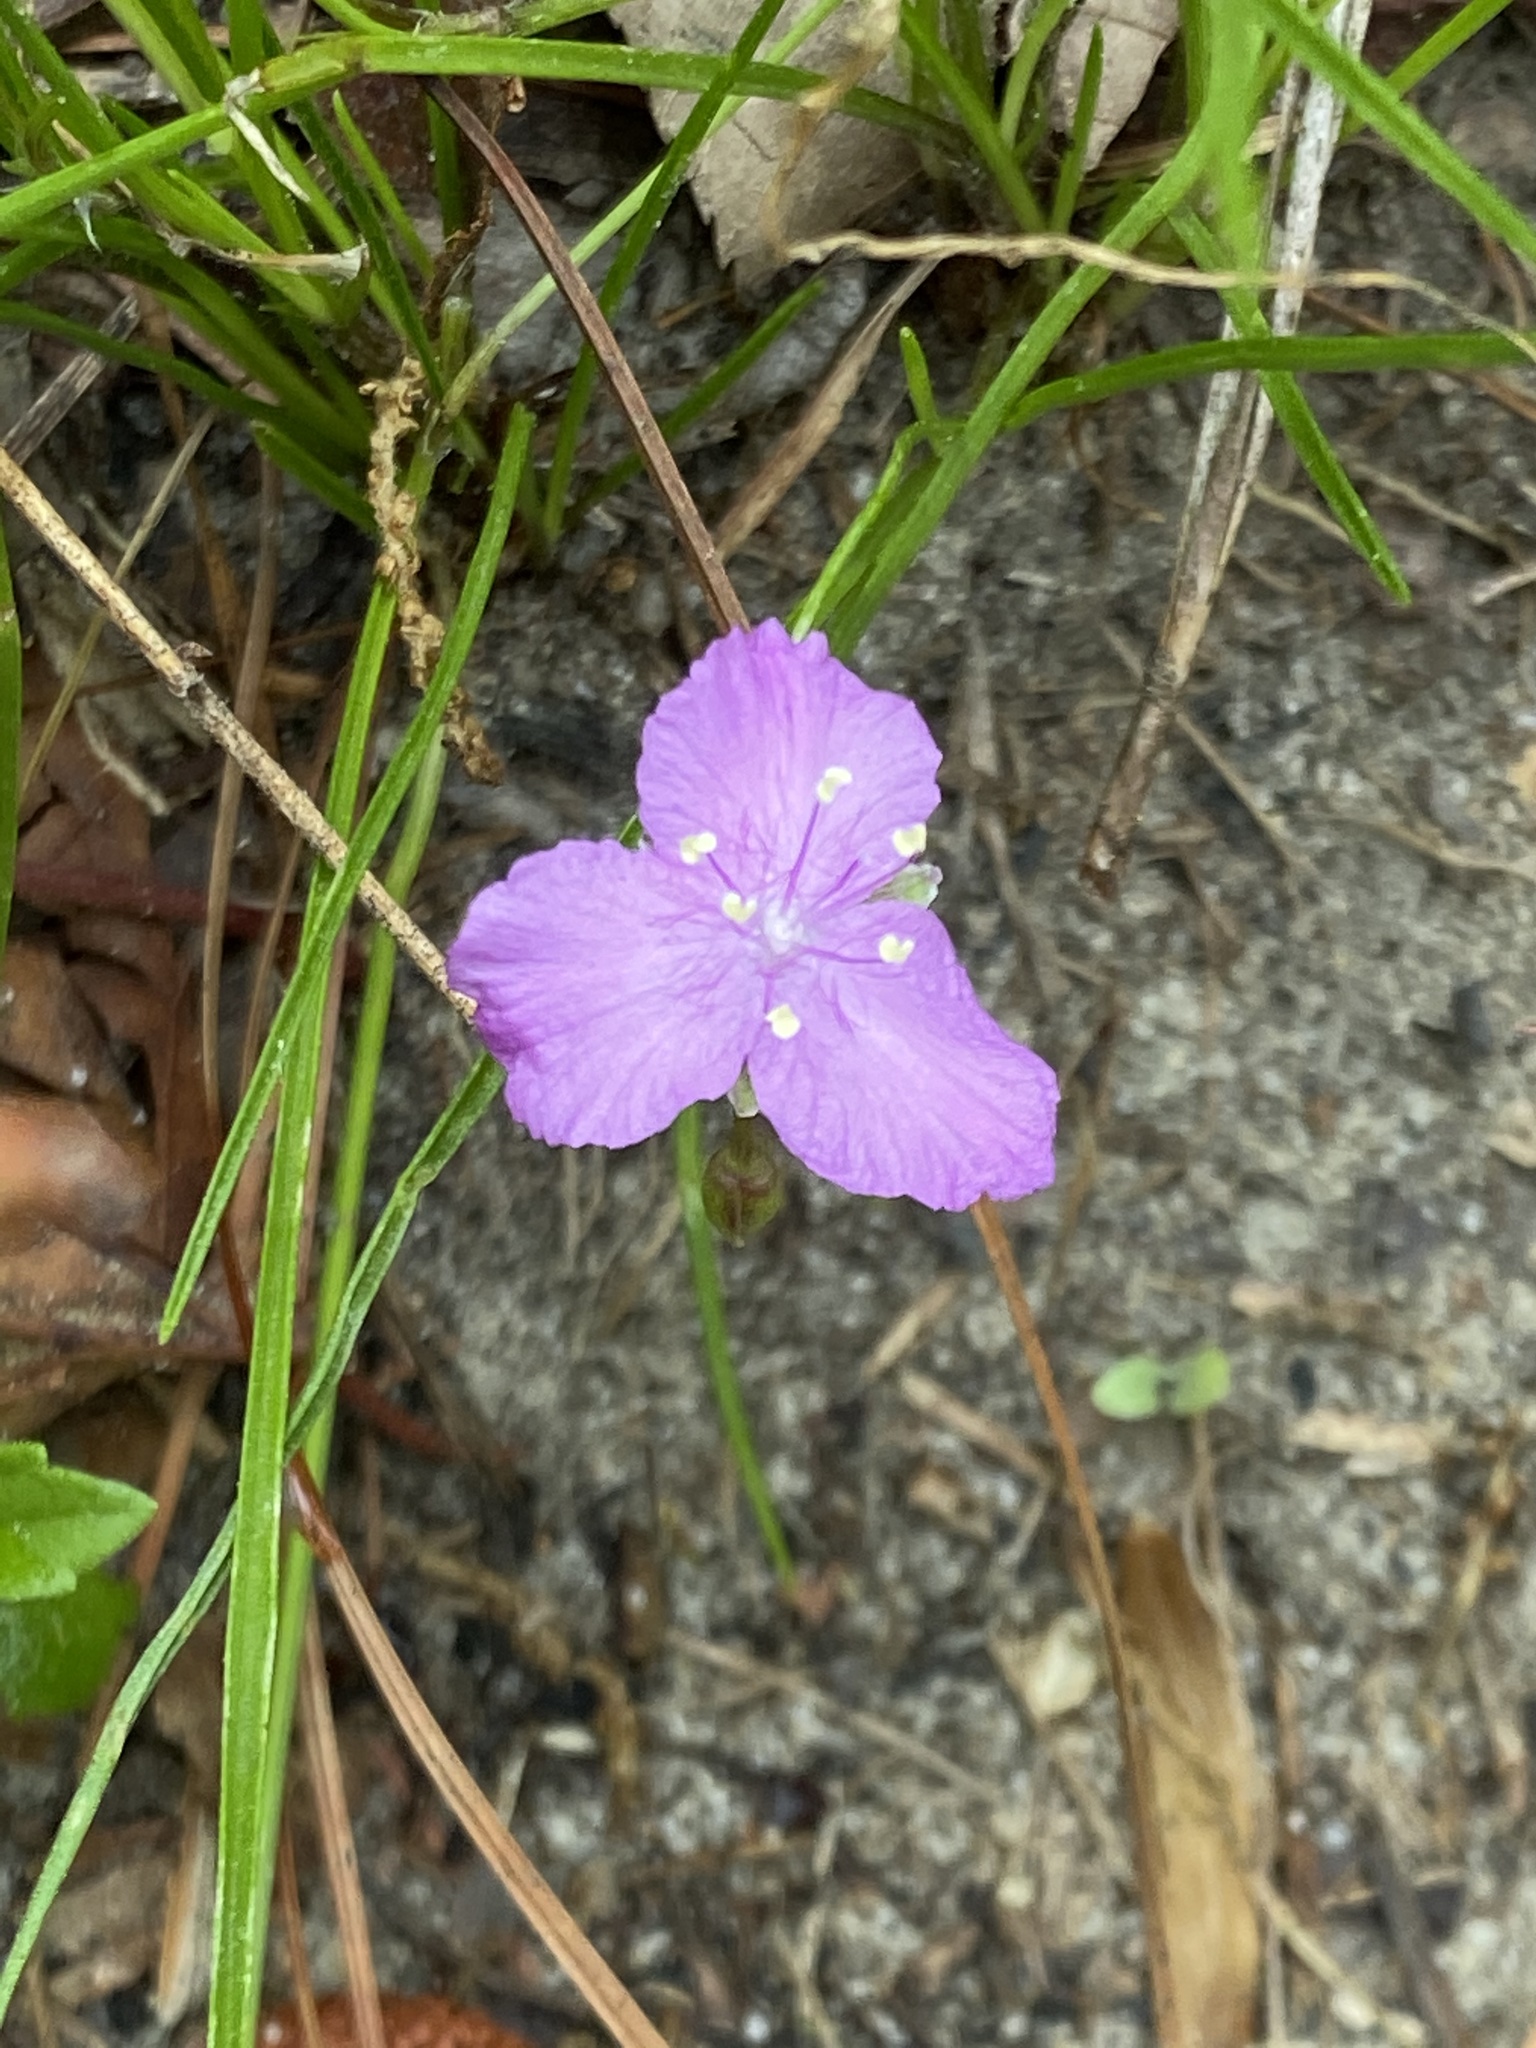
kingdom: Plantae
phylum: Tracheophyta
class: Liliopsida
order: Commelinales
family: Commelinaceae
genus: Callisia
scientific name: Callisia graminea
